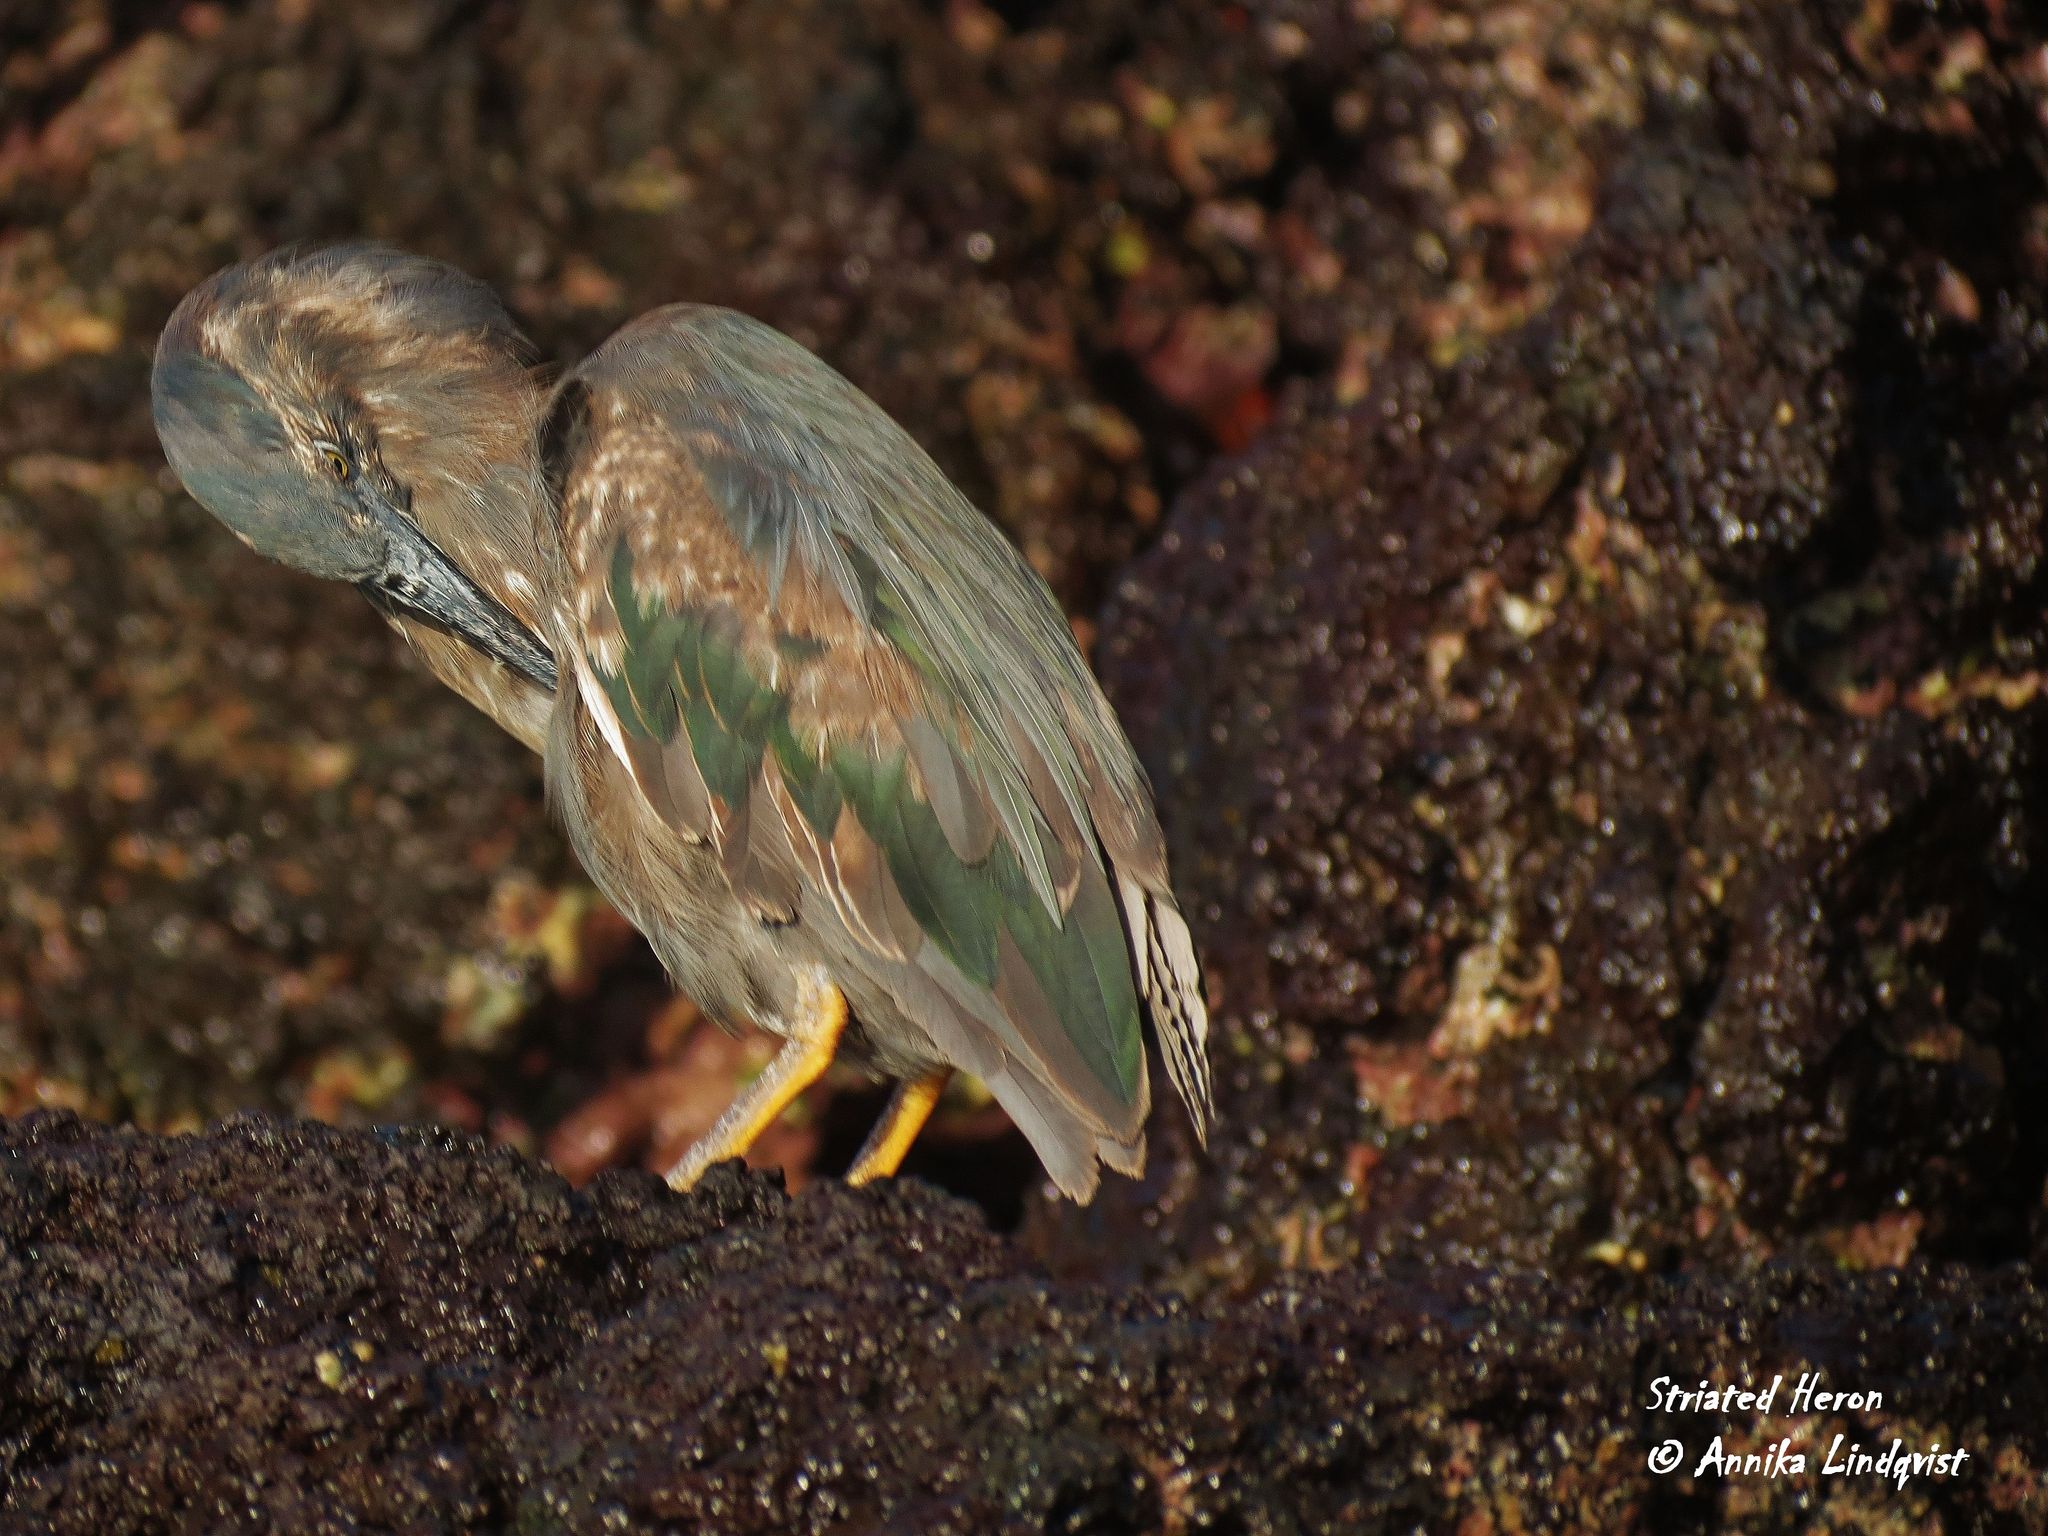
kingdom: Animalia
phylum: Chordata
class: Aves
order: Pelecaniformes
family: Ardeidae
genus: Butorides
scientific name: Butorides striata
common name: Striated heron
